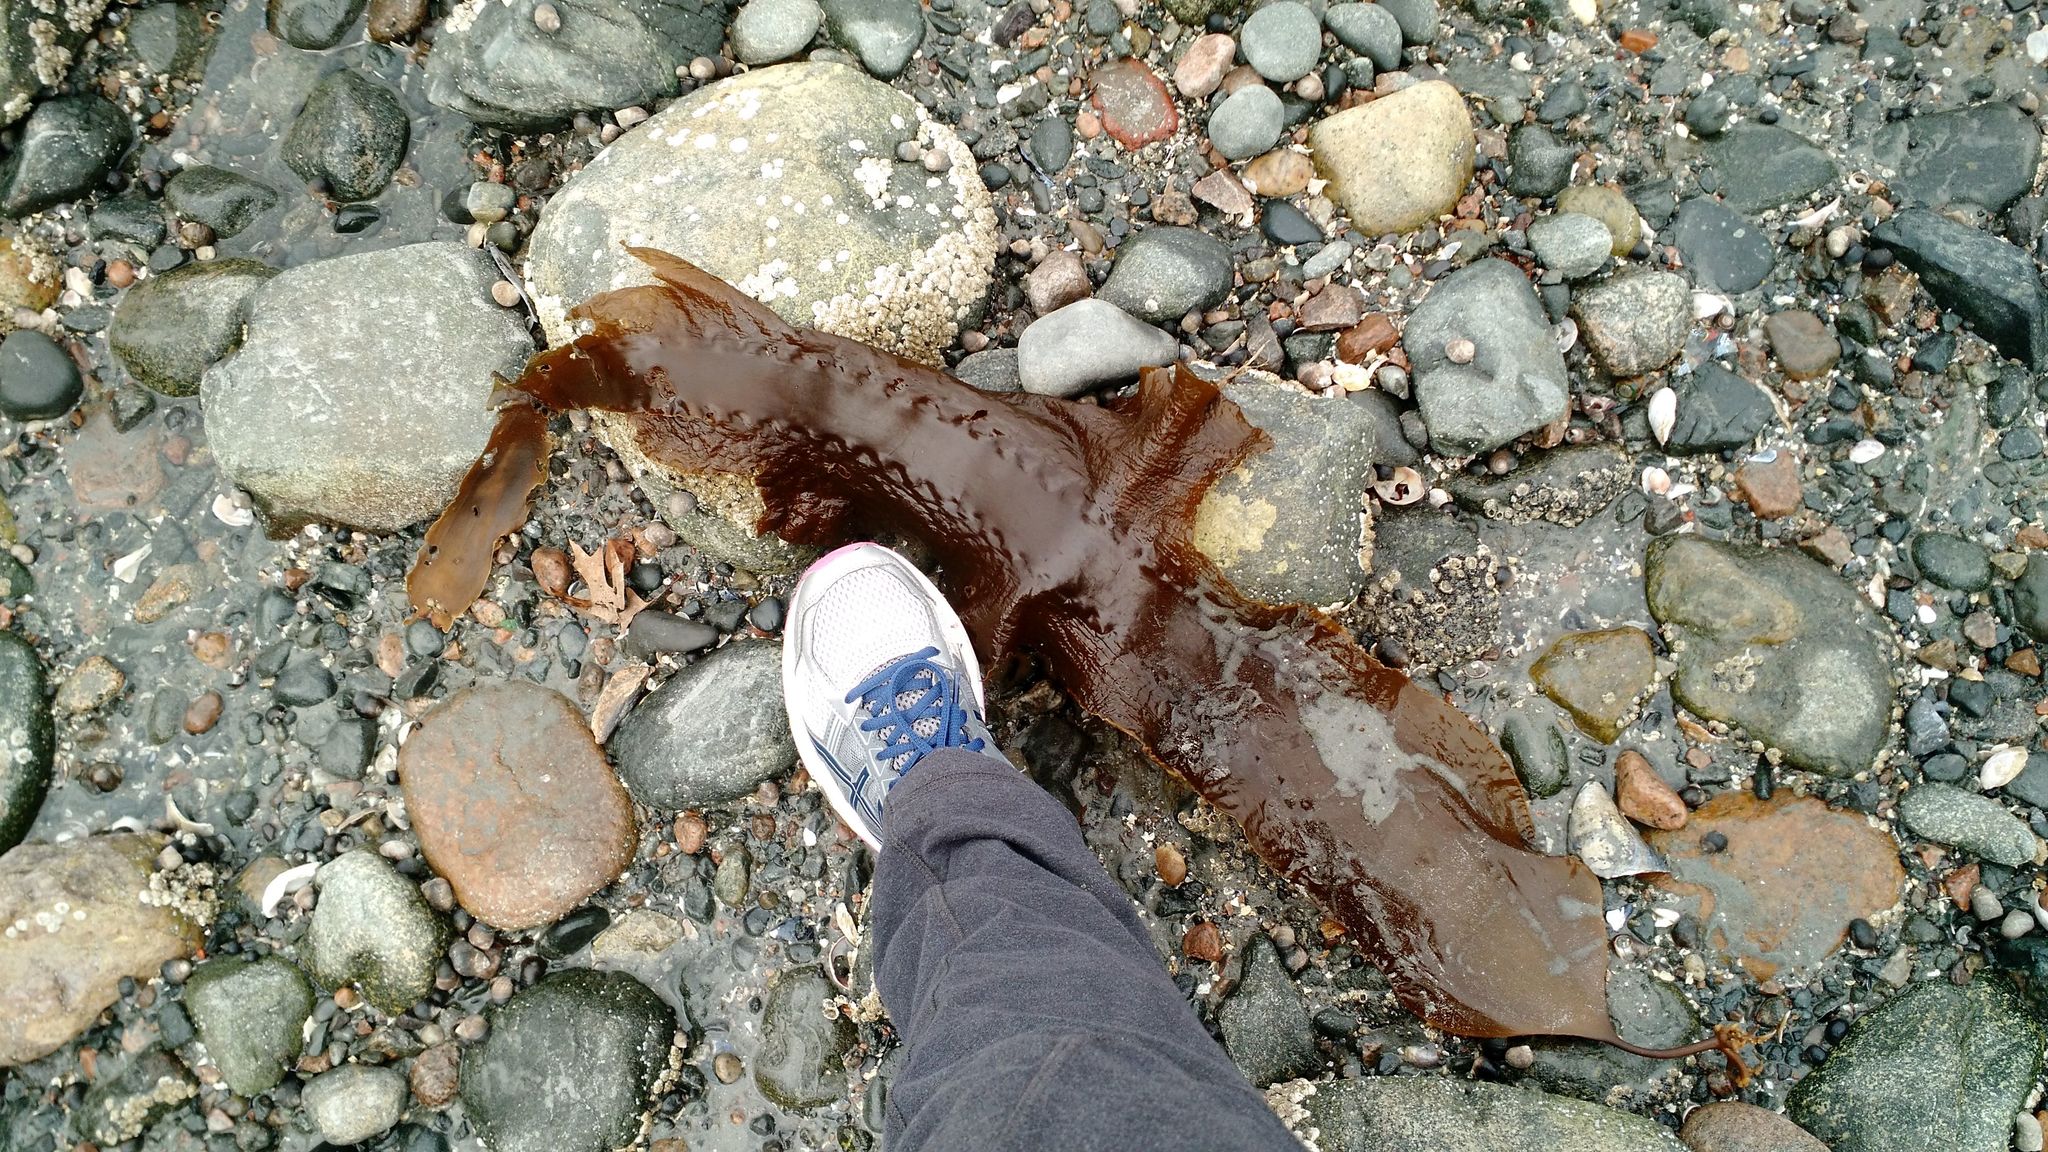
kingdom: Chromista
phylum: Ochrophyta
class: Phaeophyceae
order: Laminariales
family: Laminariaceae
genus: Saccharina
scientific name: Saccharina latissima
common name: Poor man's weather glass
